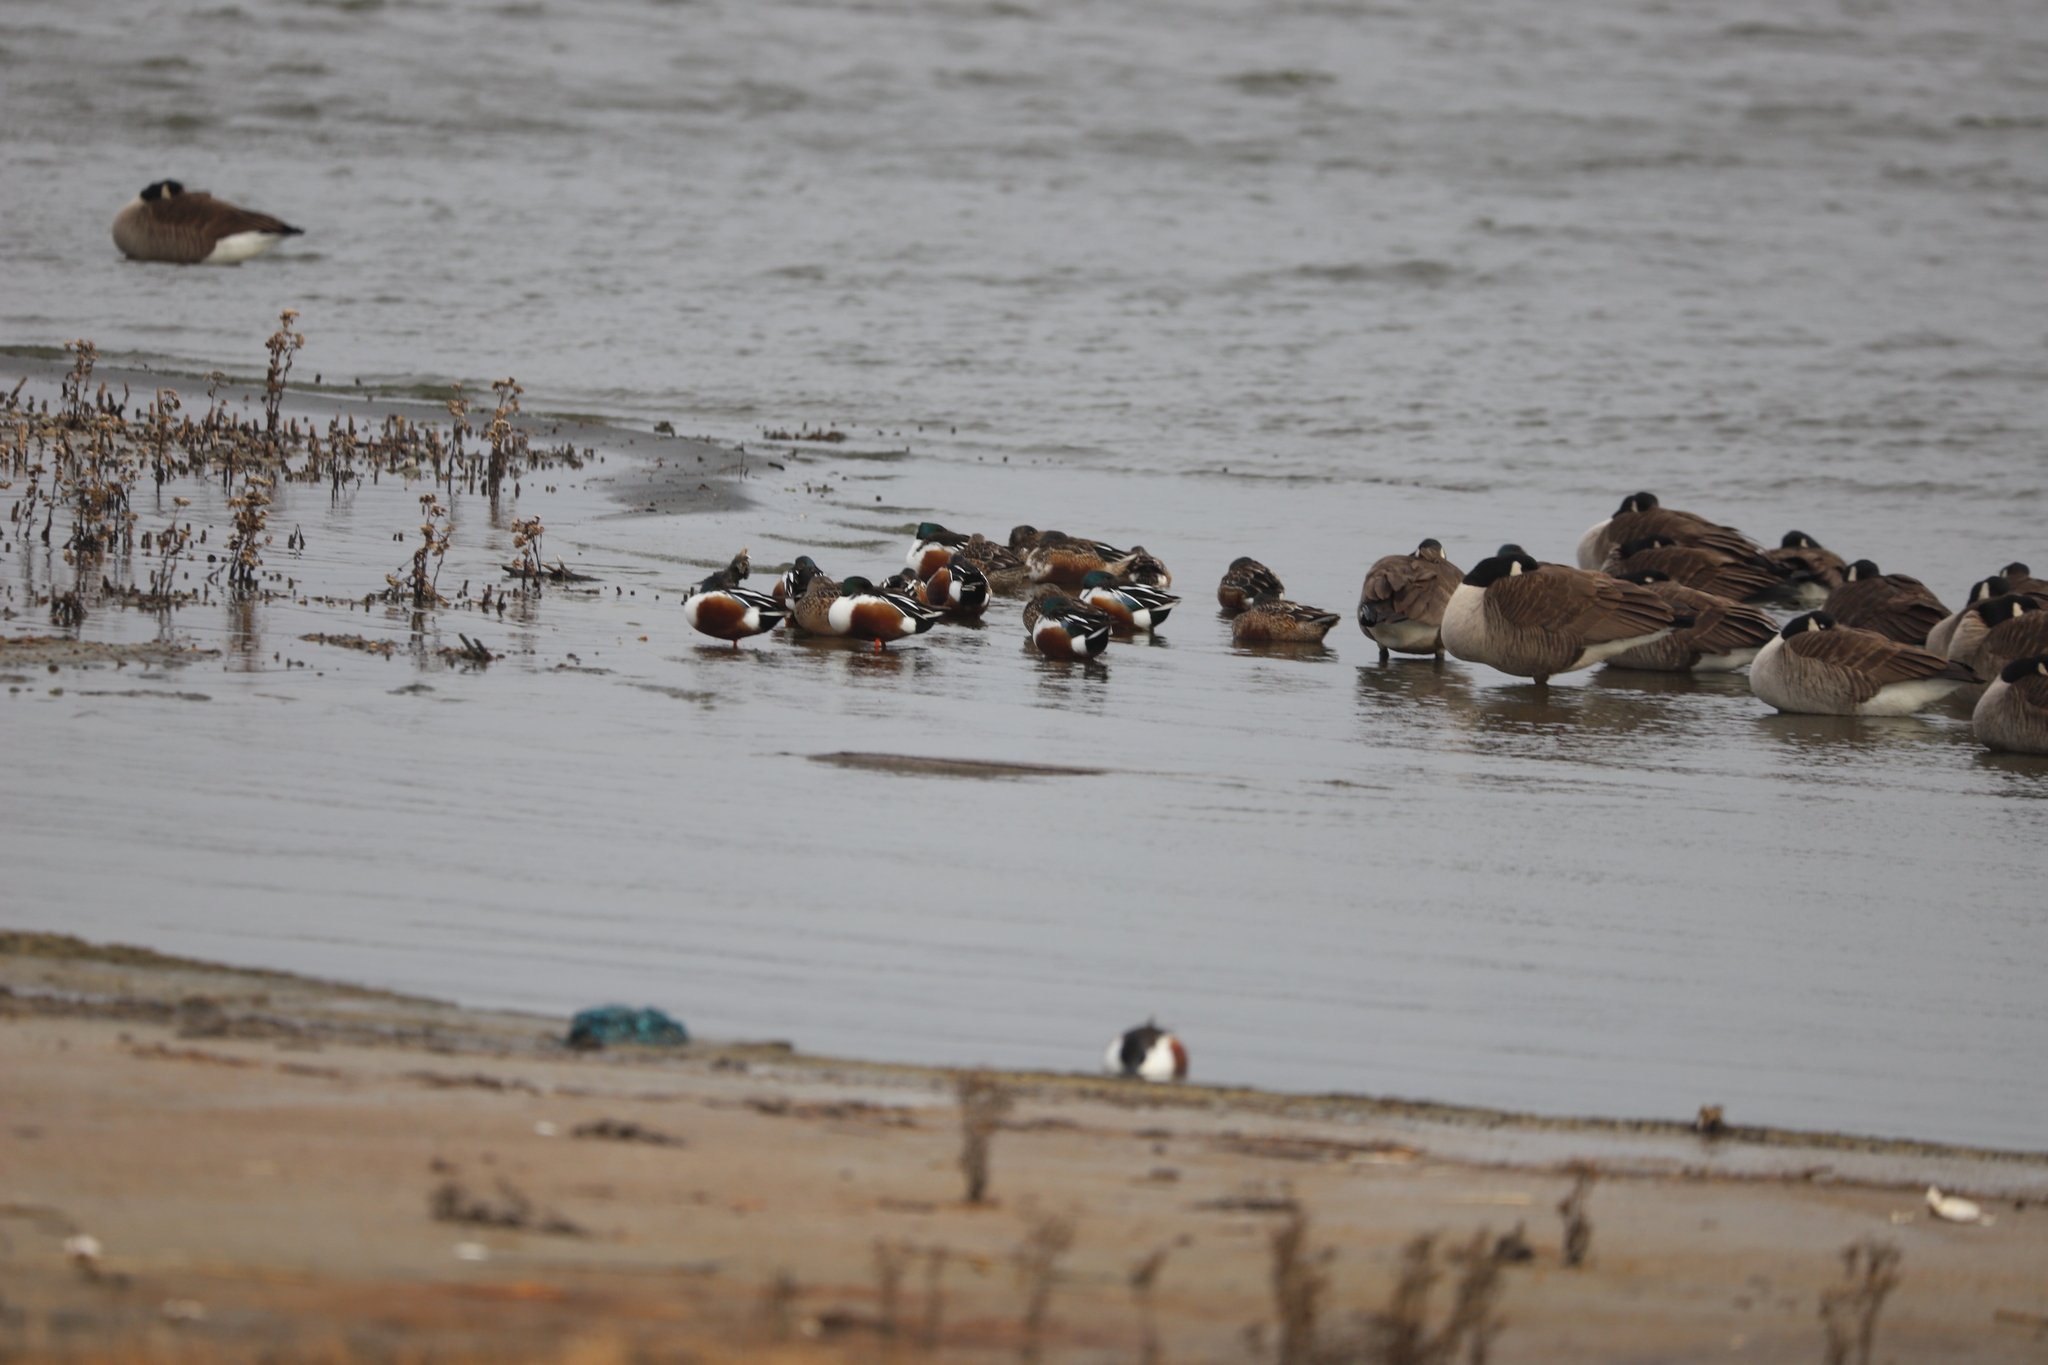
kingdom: Animalia
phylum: Chordata
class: Aves
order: Anseriformes
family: Anatidae
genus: Spatula
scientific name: Spatula clypeata
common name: Northern shoveler
